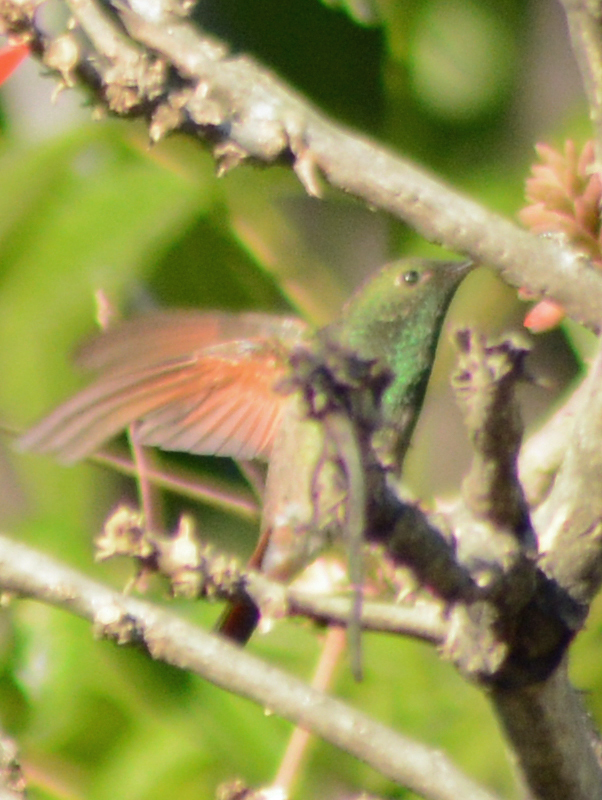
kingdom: Animalia
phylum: Chordata
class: Aves
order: Apodiformes
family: Trochilidae
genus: Saucerottia
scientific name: Saucerottia beryllina
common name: Berylline hummingbird
